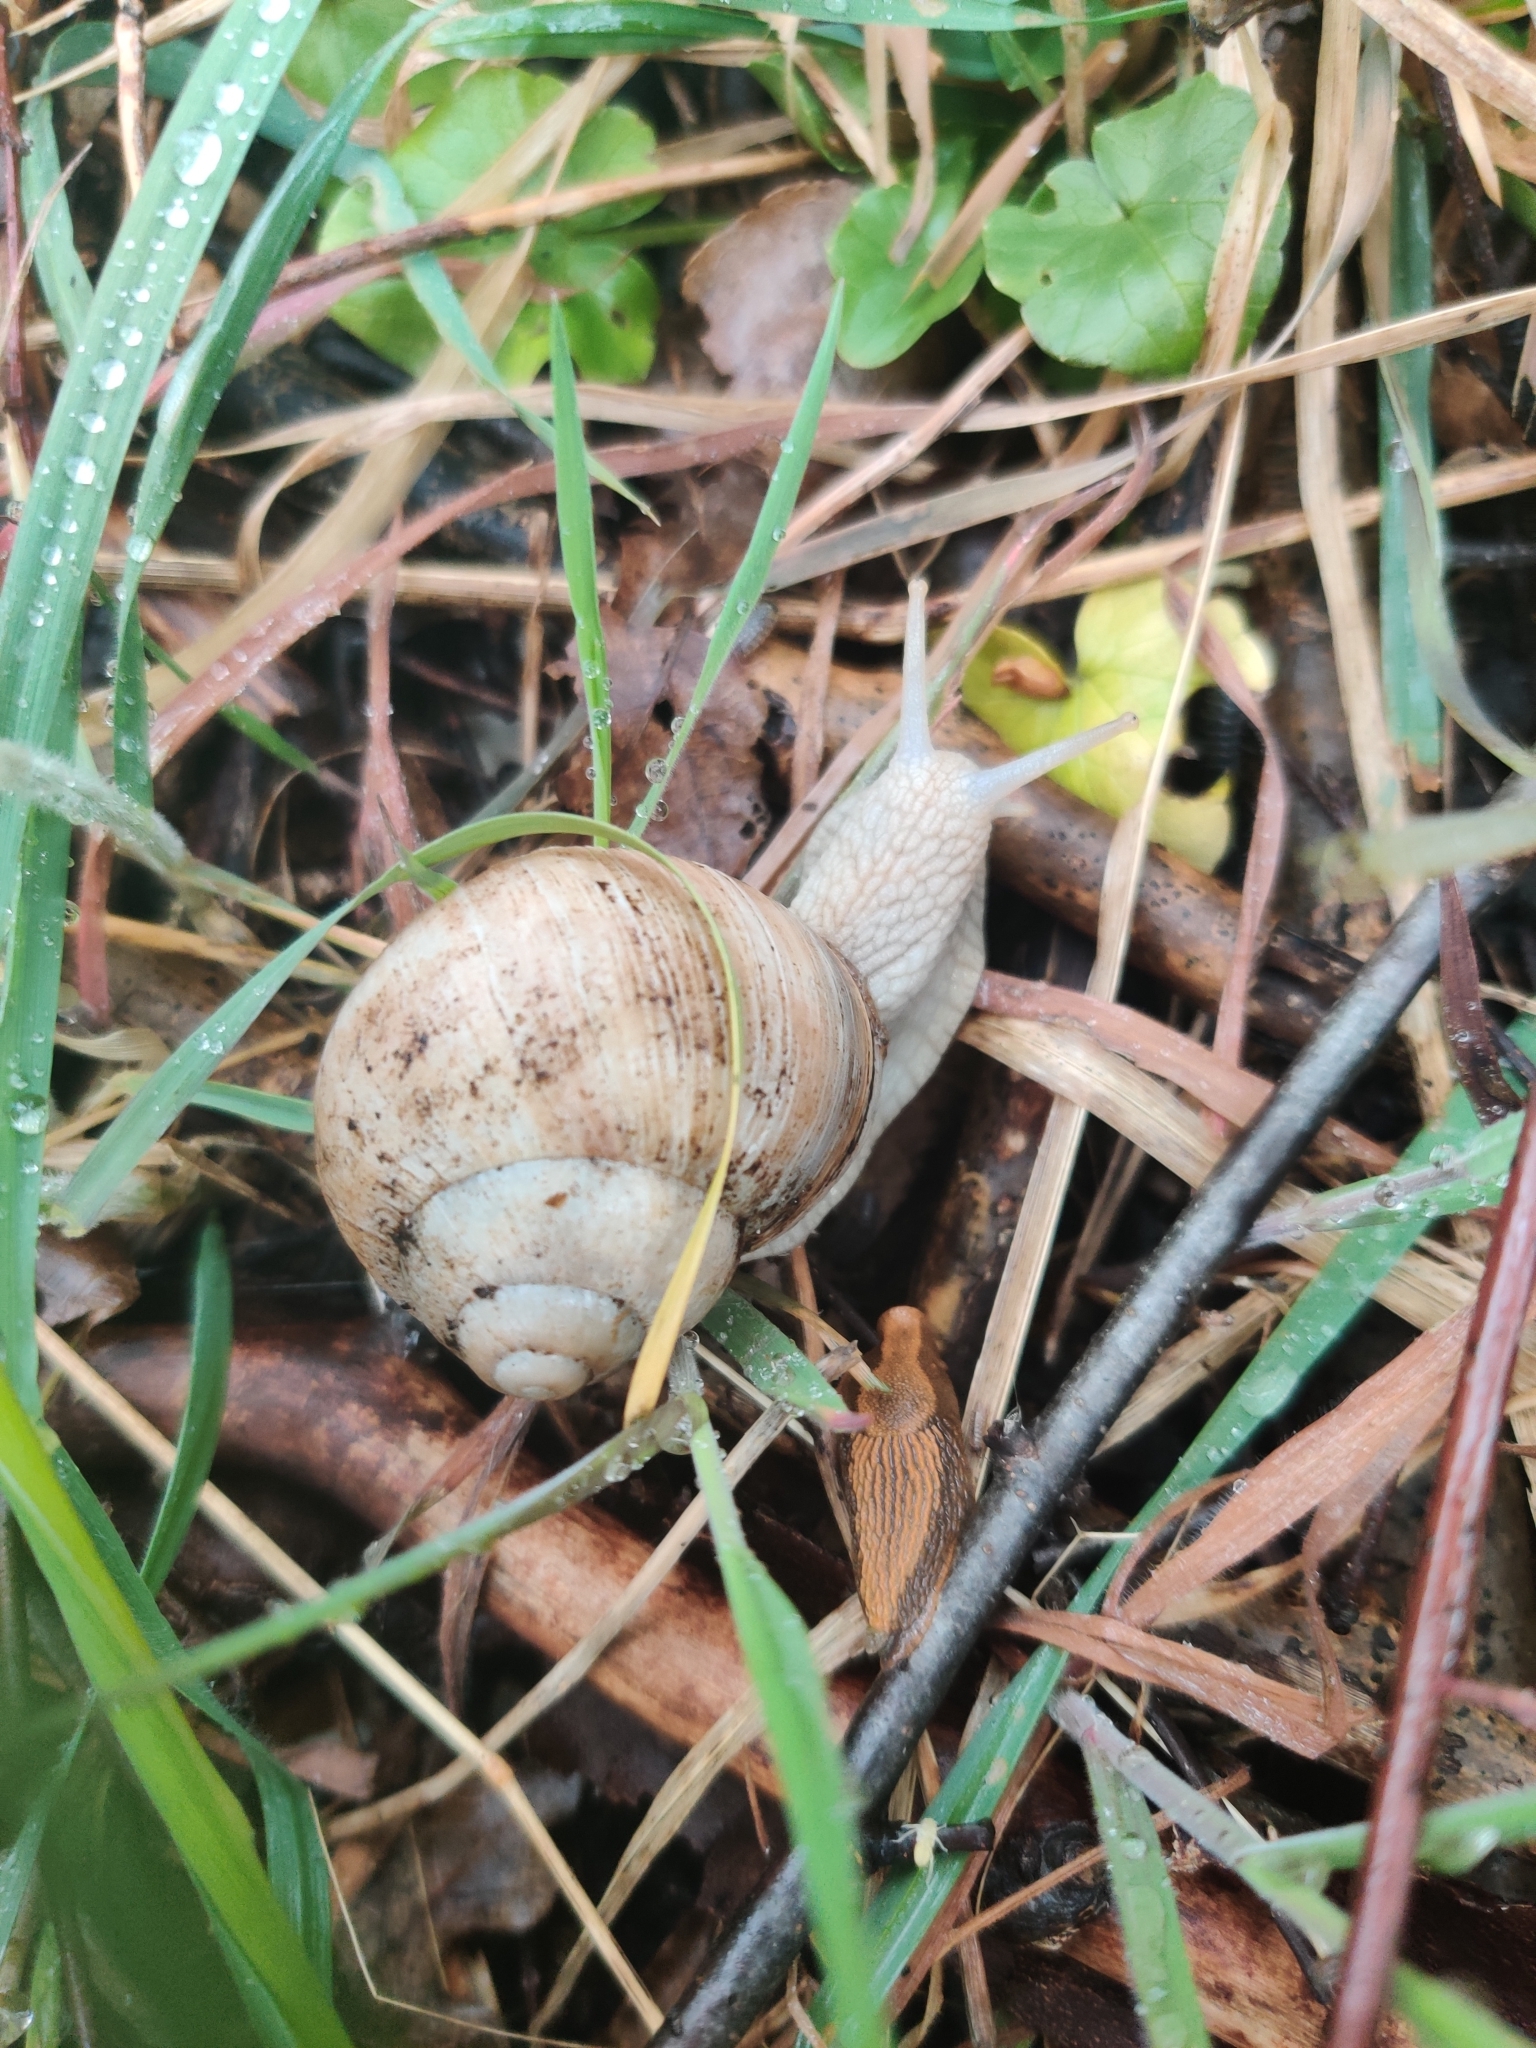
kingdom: Animalia
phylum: Mollusca
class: Gastropoda
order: Stylommatophora
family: Helicidae
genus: Helix
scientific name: Helix pomatia
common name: Roman snail
